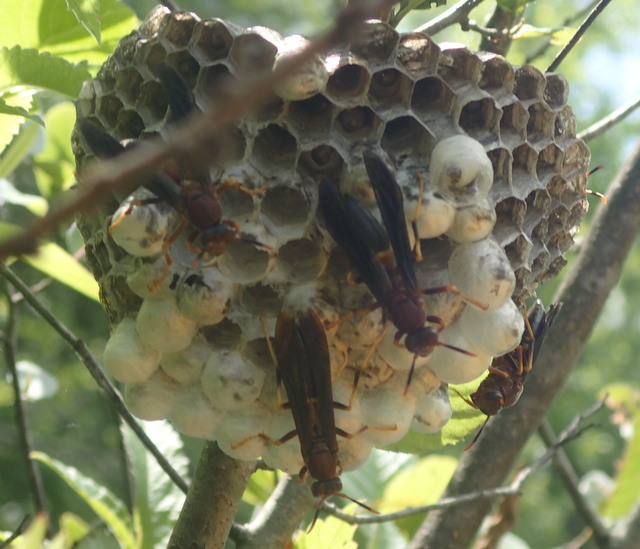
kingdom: Animalia
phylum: Arthropoda
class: Insecta
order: Hymenoptera
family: Eumenidae
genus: Polistes
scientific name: Polistes annularis
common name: Ringed paper wasp
